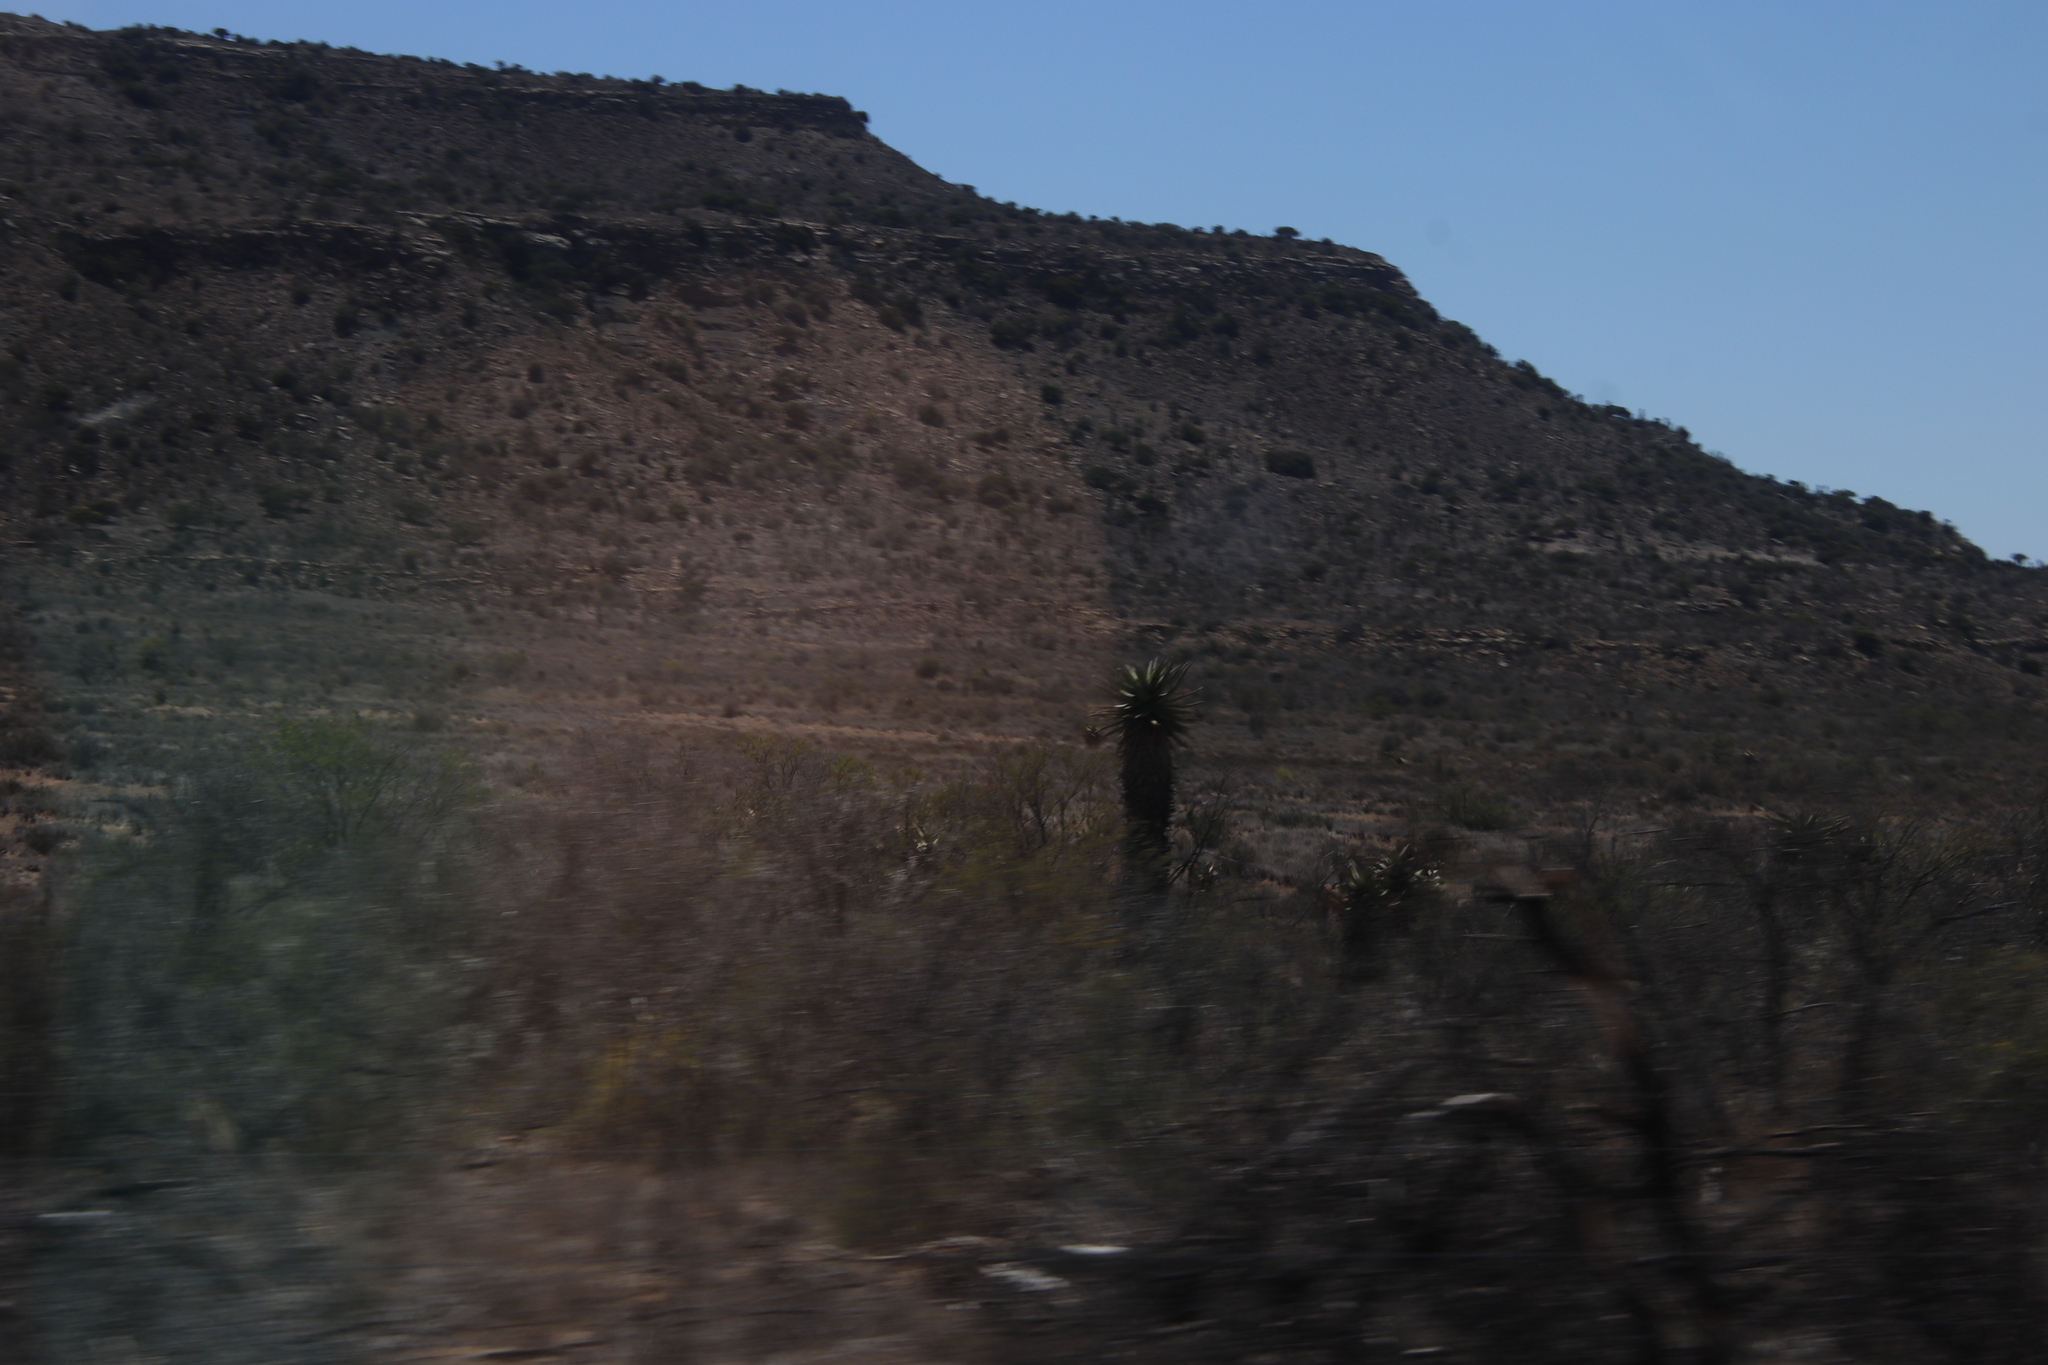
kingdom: Plantae
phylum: Tracheophyta
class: Liliopsida
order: Asparagales
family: Asphodelaceae
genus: Aloe
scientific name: Aloe ferox
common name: Bitter aloe
